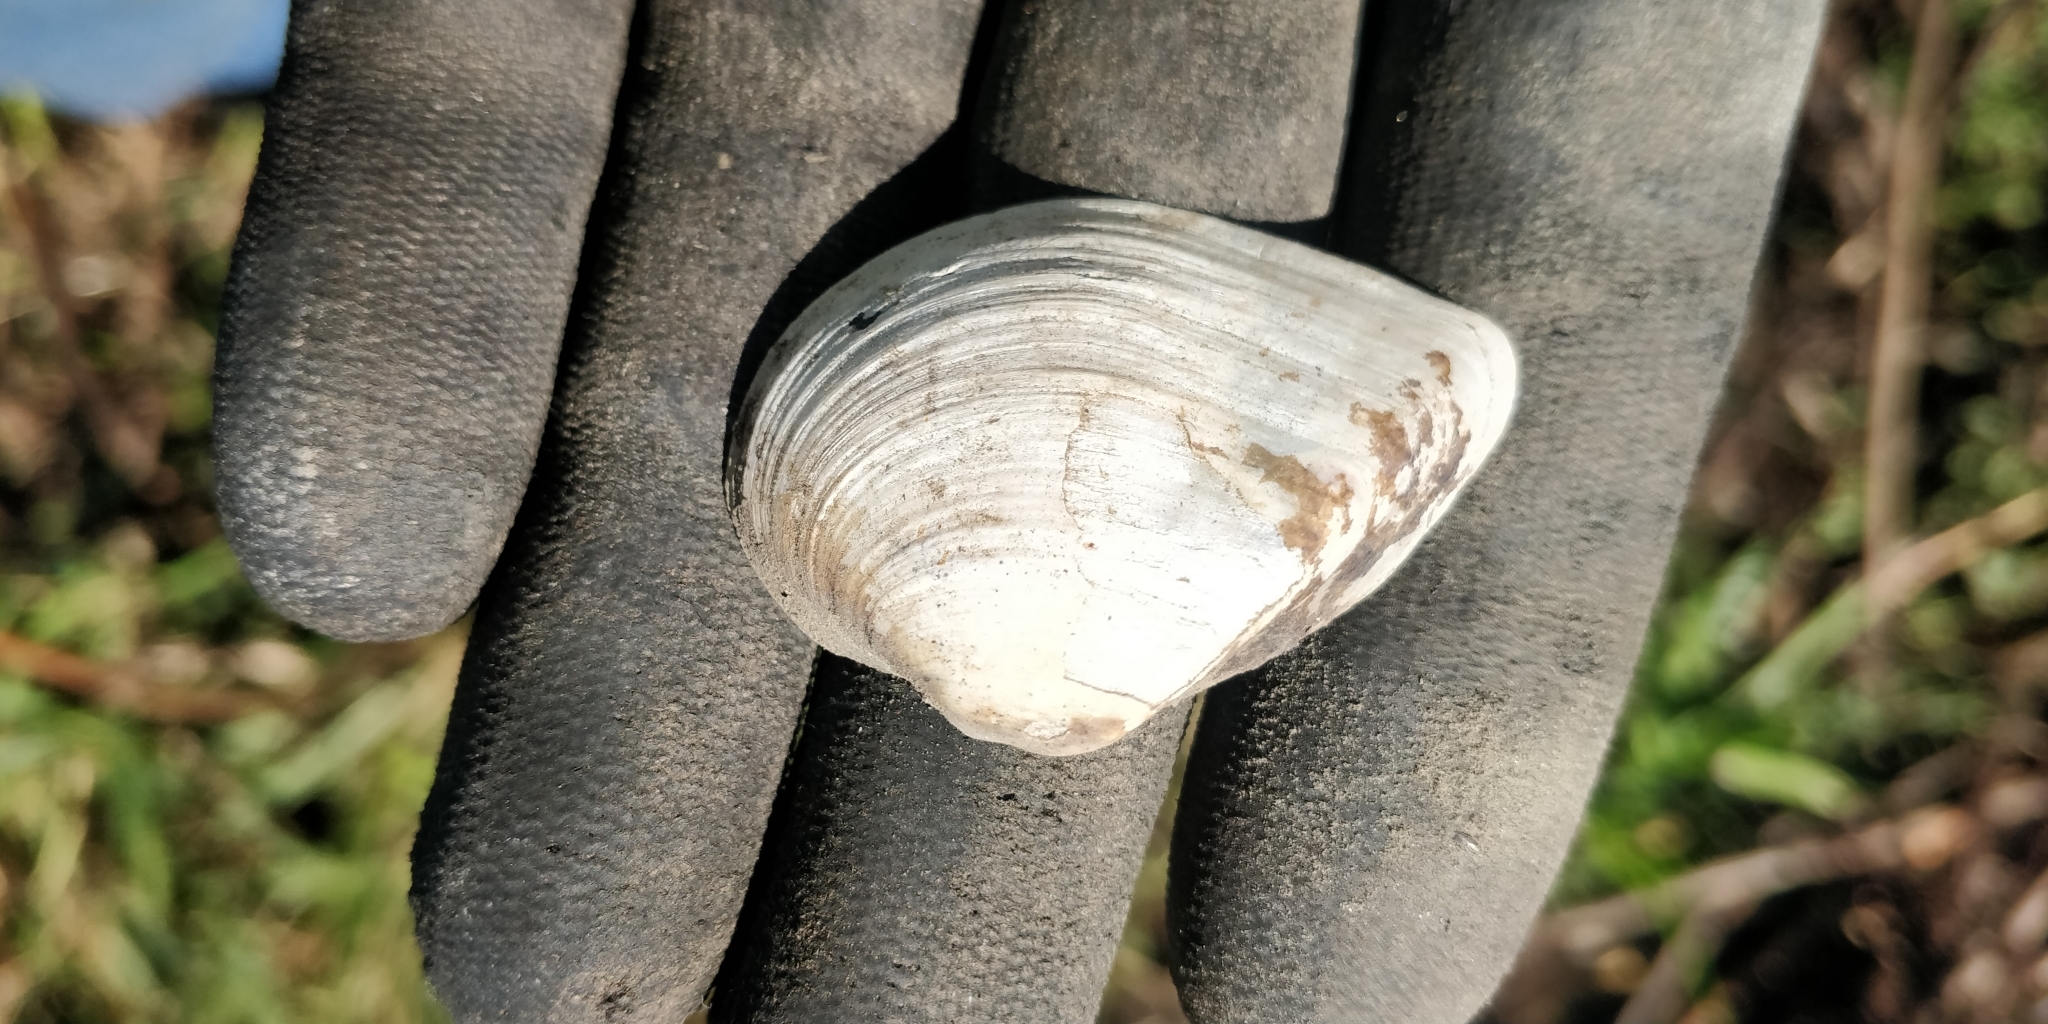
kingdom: Animalia
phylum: Mollusca
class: Bivalvia
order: Unionida
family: Unionidae
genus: Truncilla
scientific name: Truncilla truncata
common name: Deertoe
